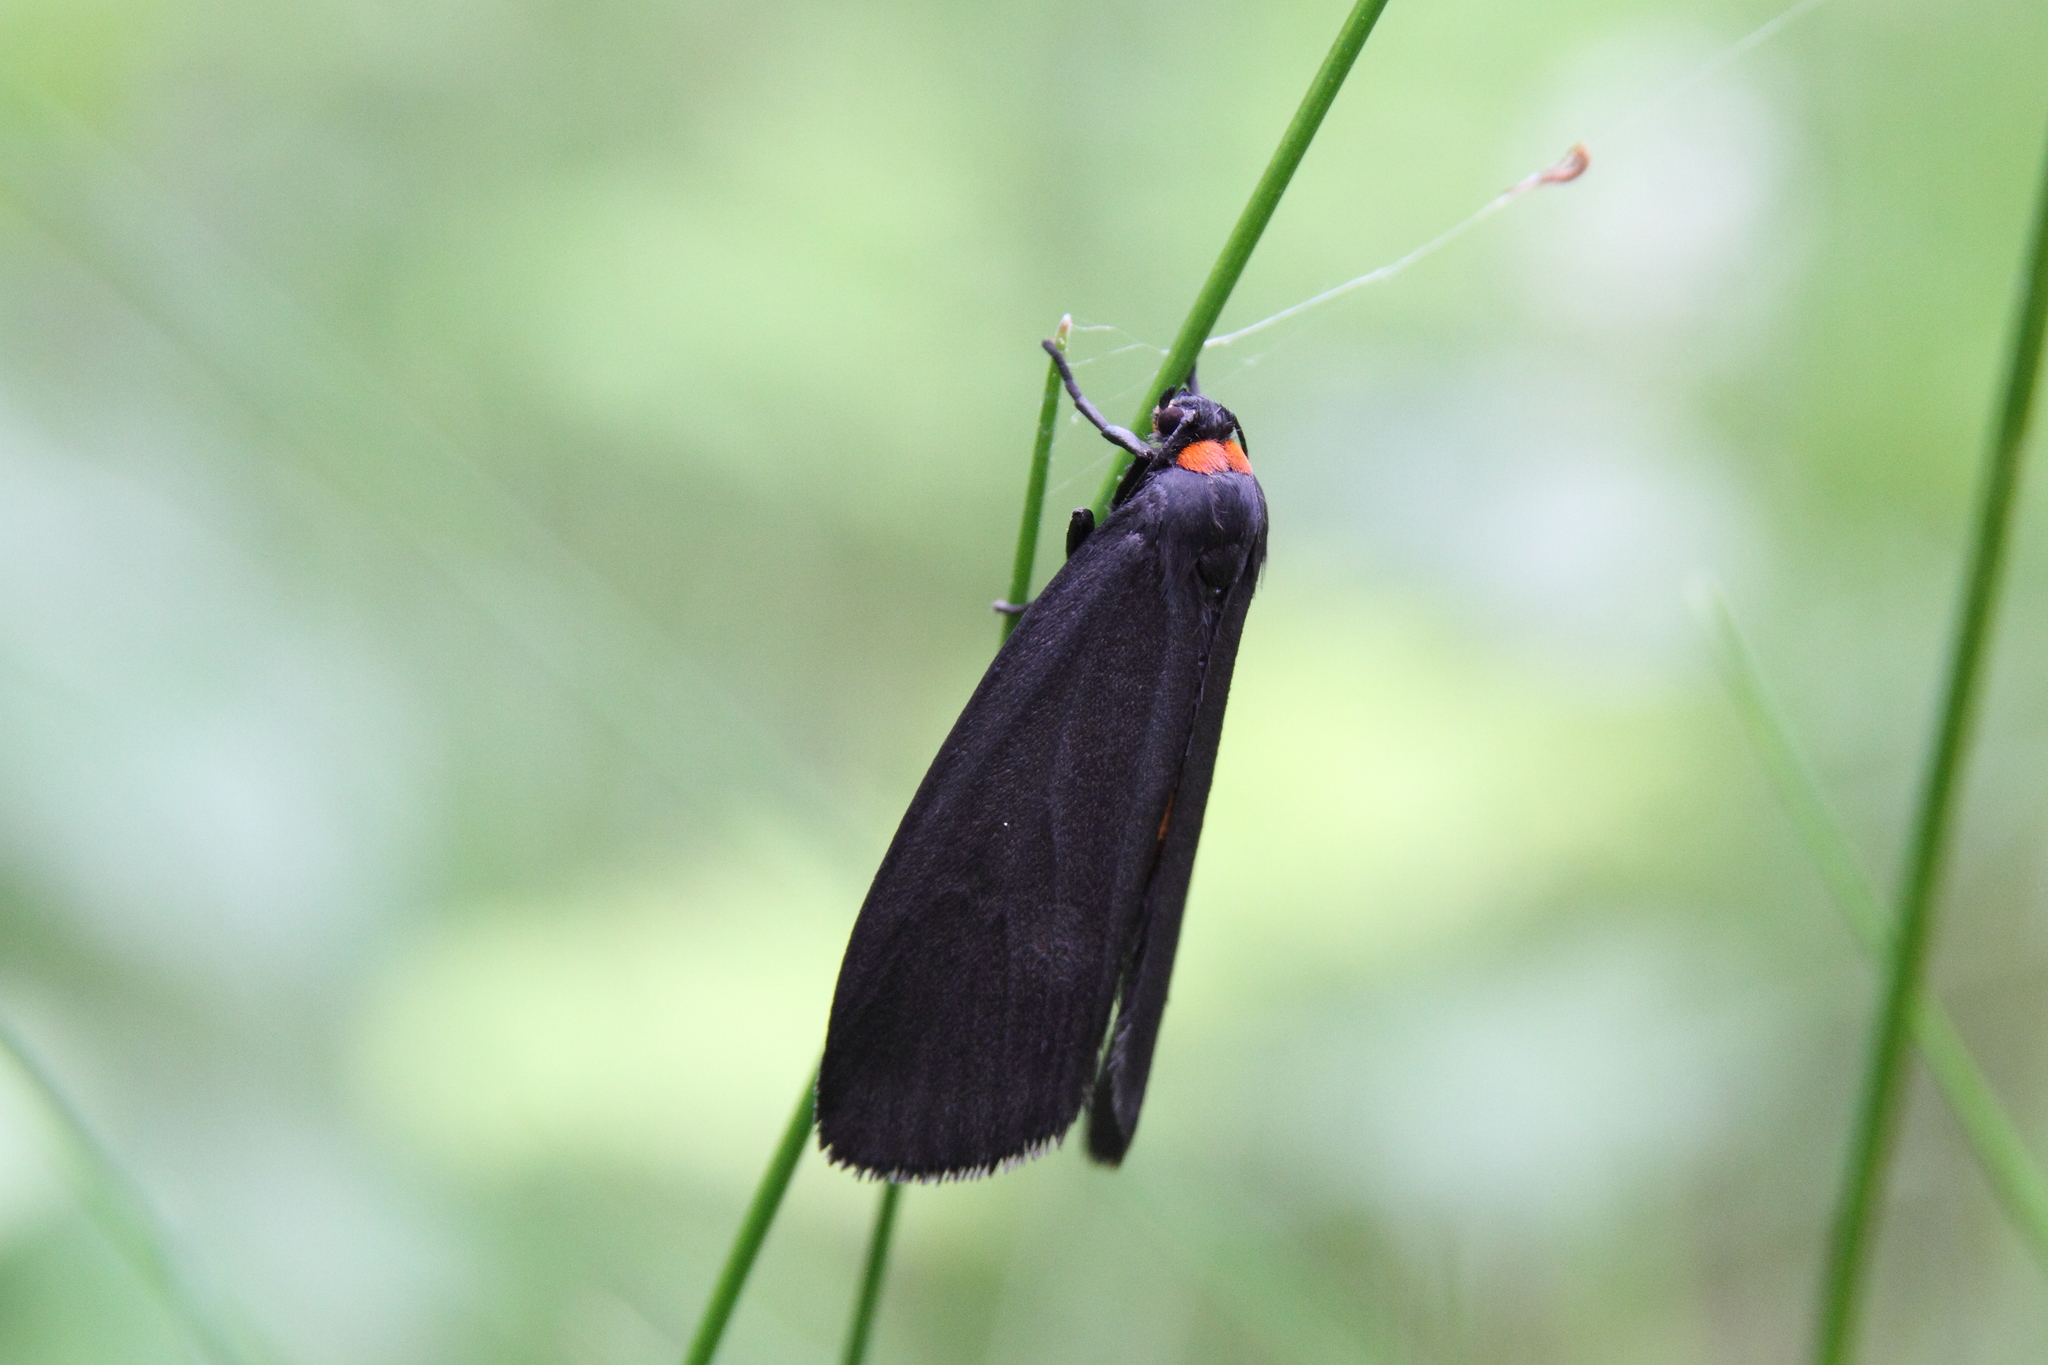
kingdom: Animalia
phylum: Arthropoda
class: Insecta
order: Lepidoptera
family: Erebidae
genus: Atolmis
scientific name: Atolmis rubricollis
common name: Red-necked footman
